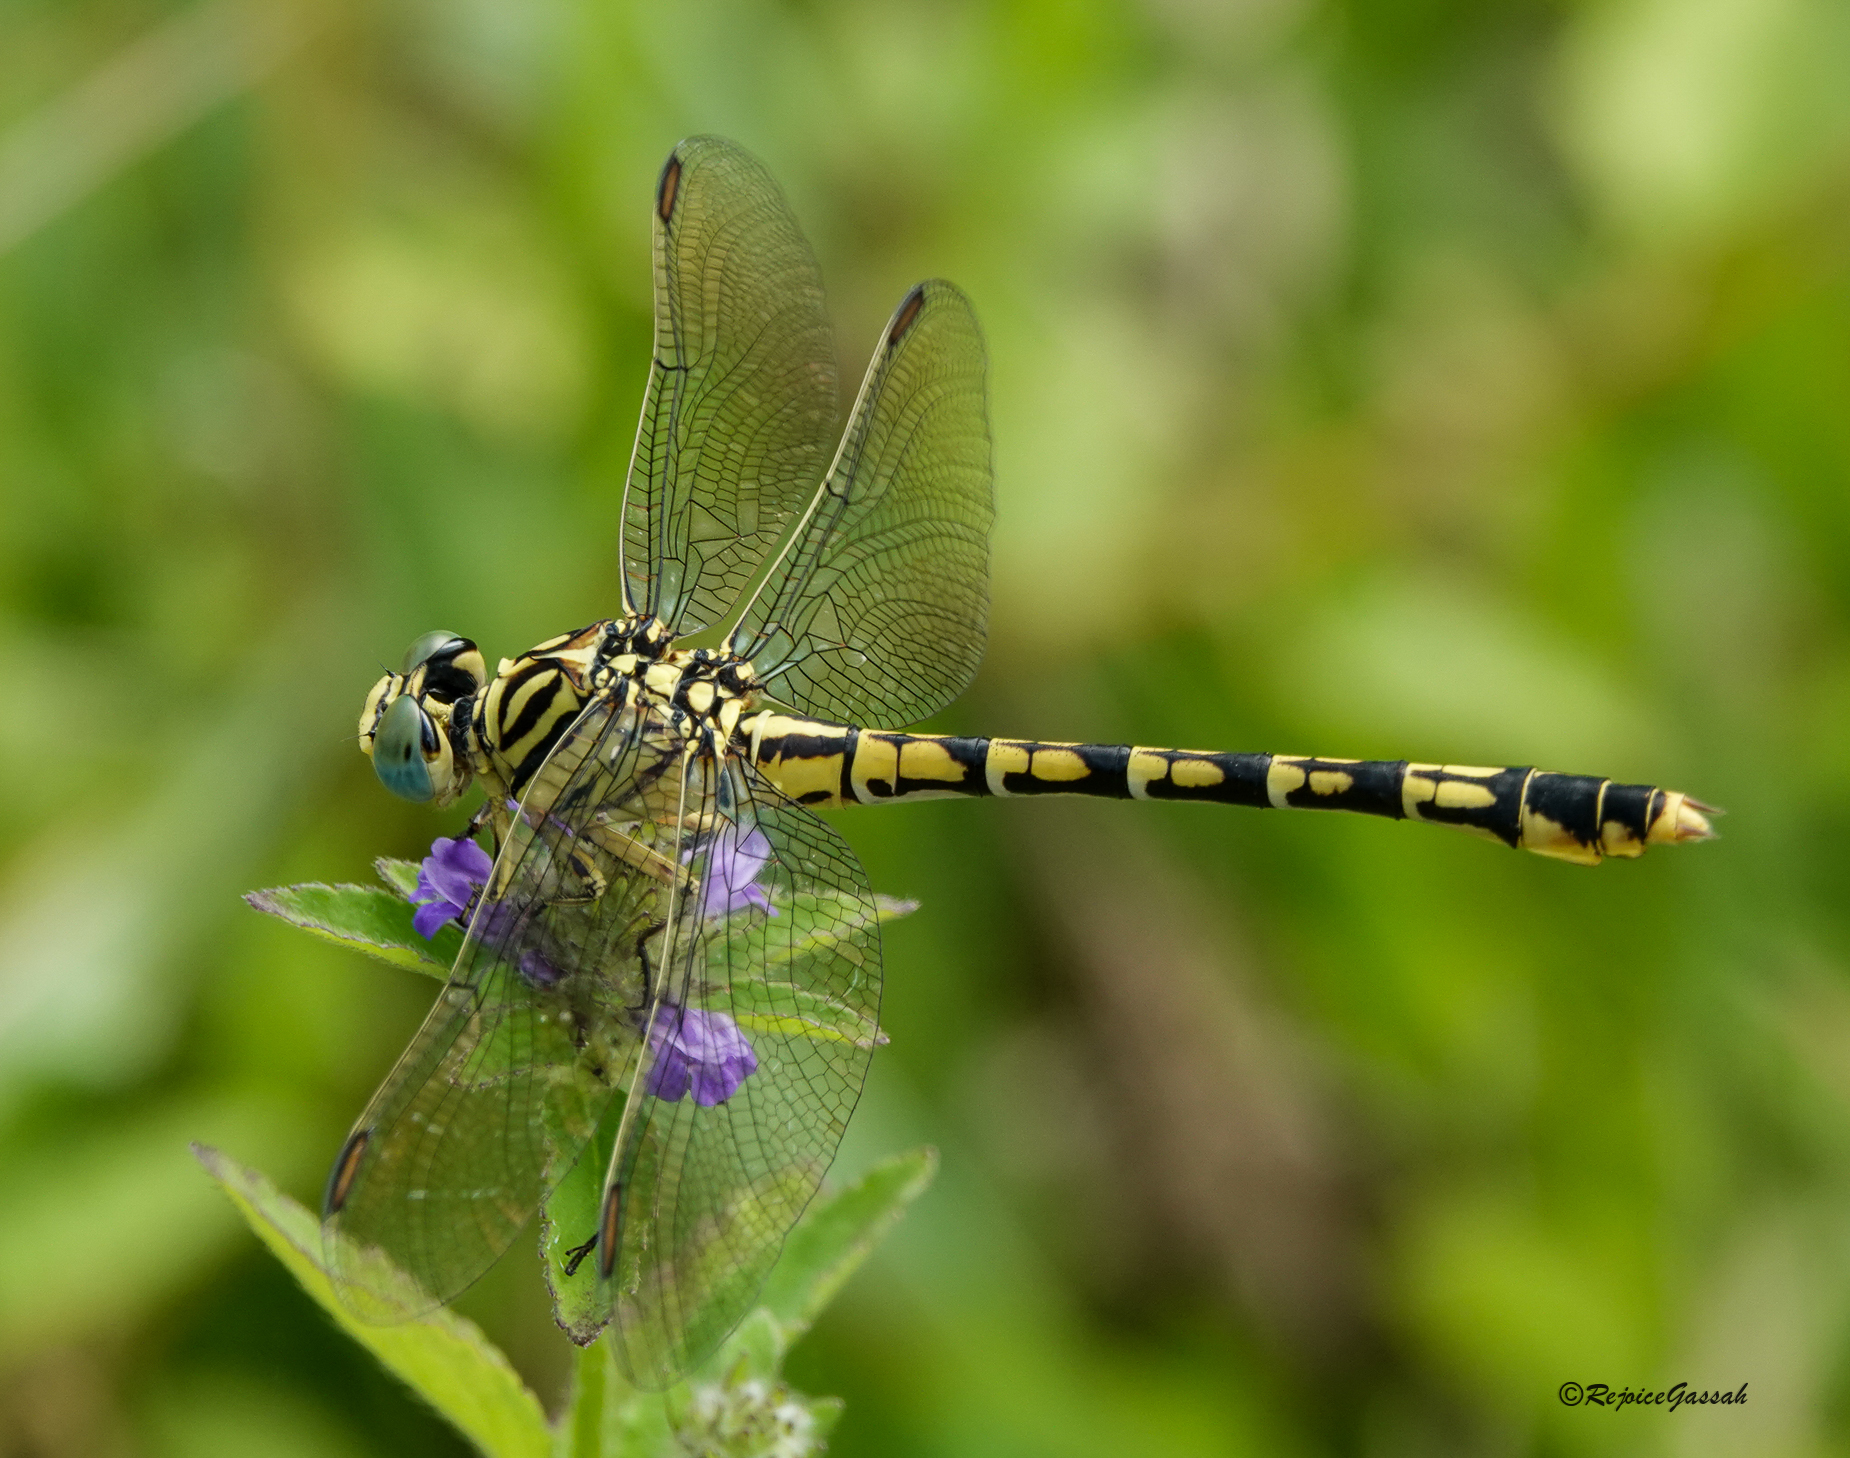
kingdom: Animalia
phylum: Arthropoda
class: Insecta
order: Odonata
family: Gomphidae
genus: Paragomphus
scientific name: Paragomphus lineatus
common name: Lined hooktail
